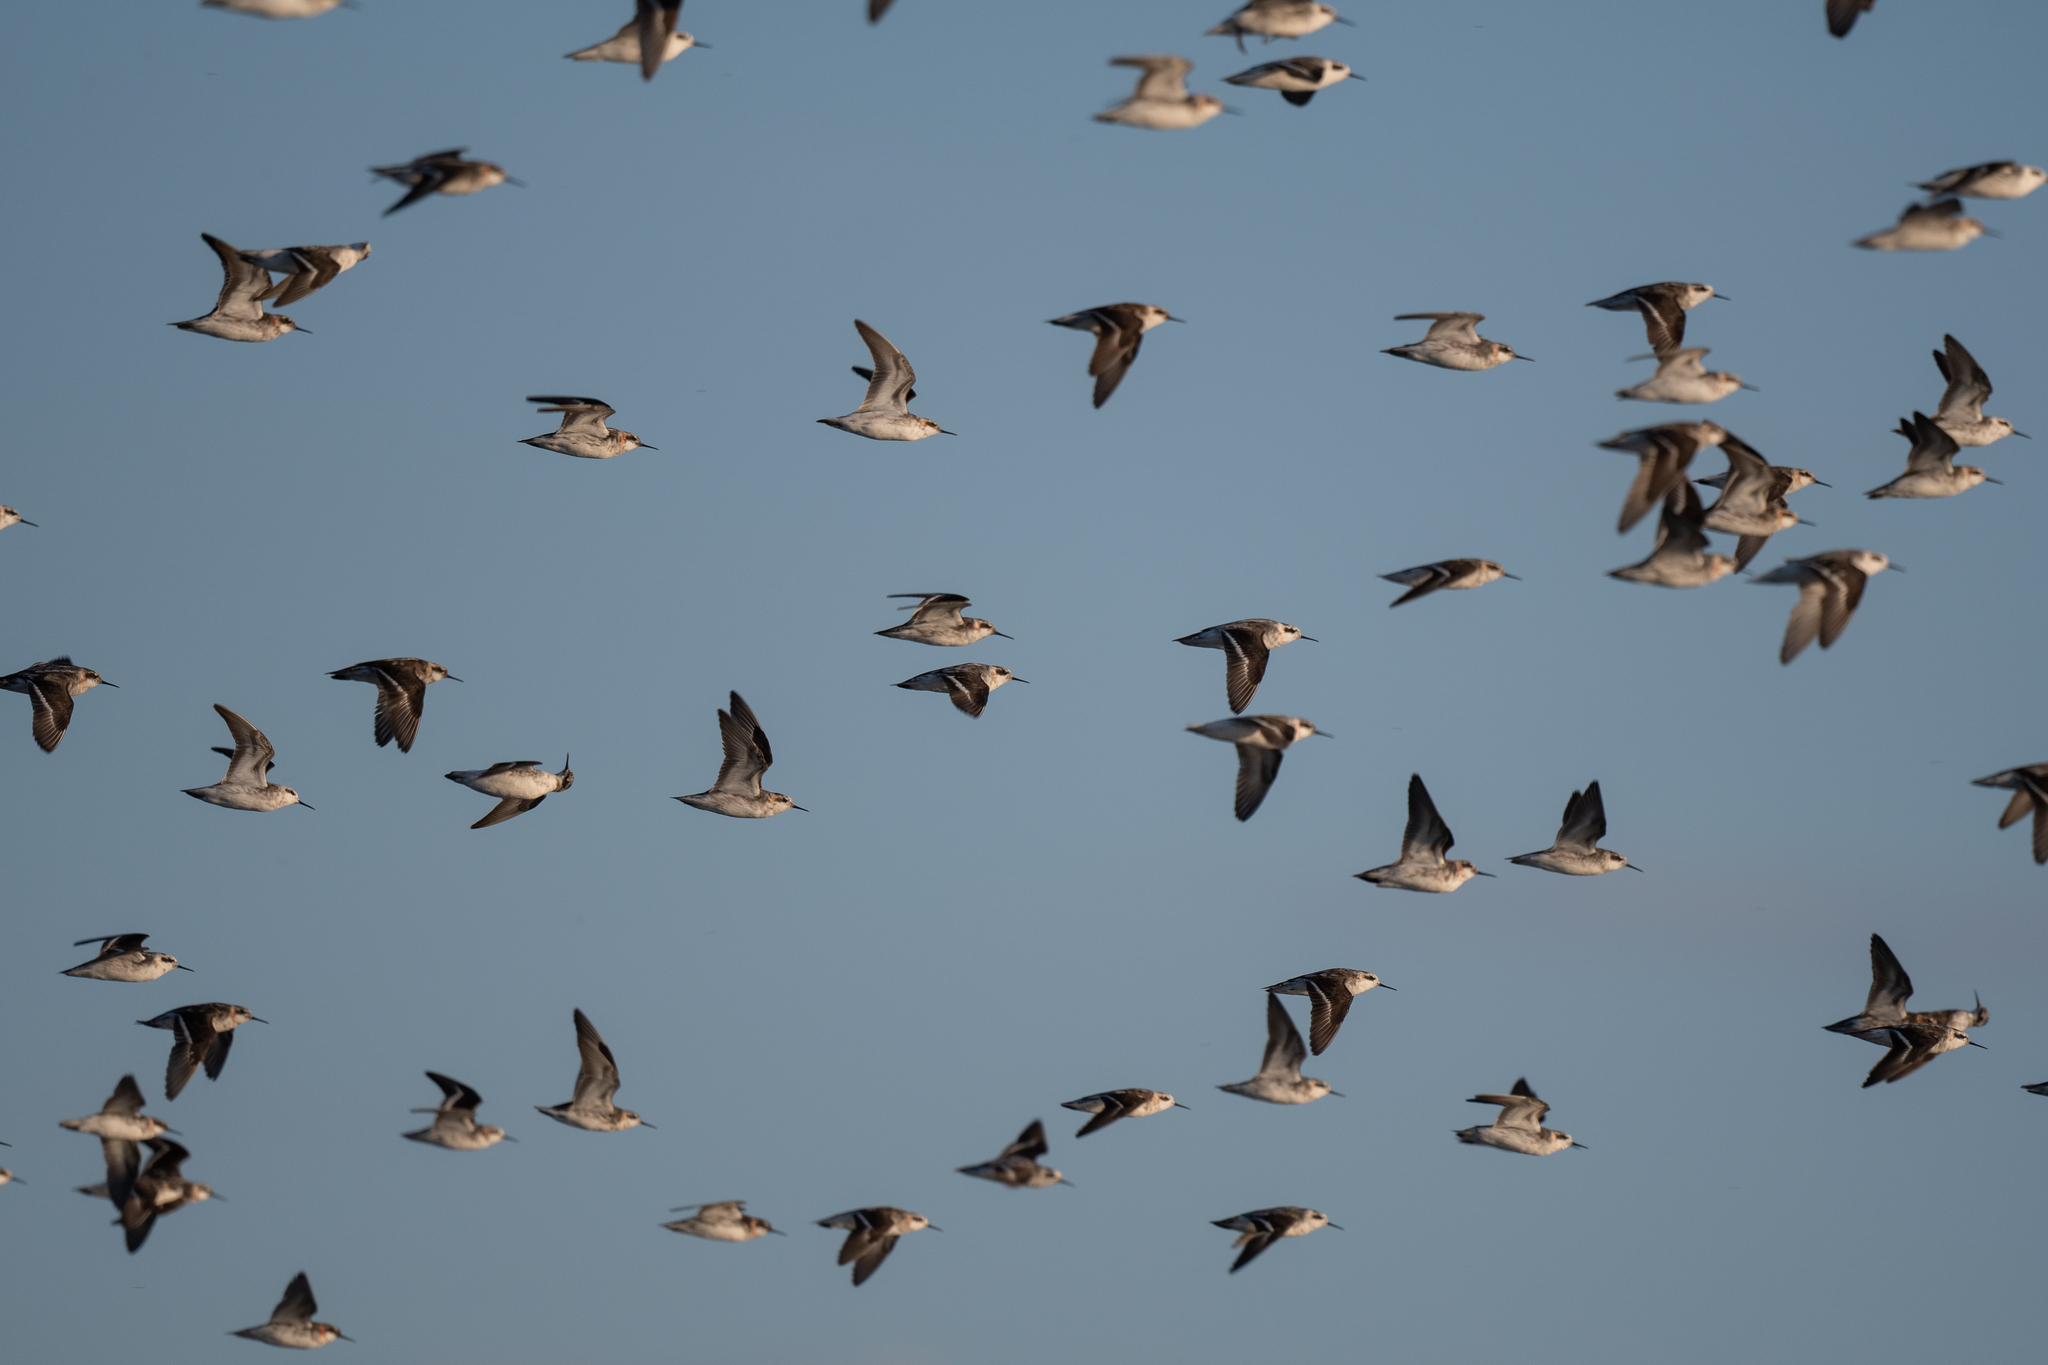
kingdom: Animalia
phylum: Chordata
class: Aves
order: Charadriiformes
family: Scolopacidae
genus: Phalaropus
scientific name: Phalaropus lobatus
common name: Red-necked phalarope
